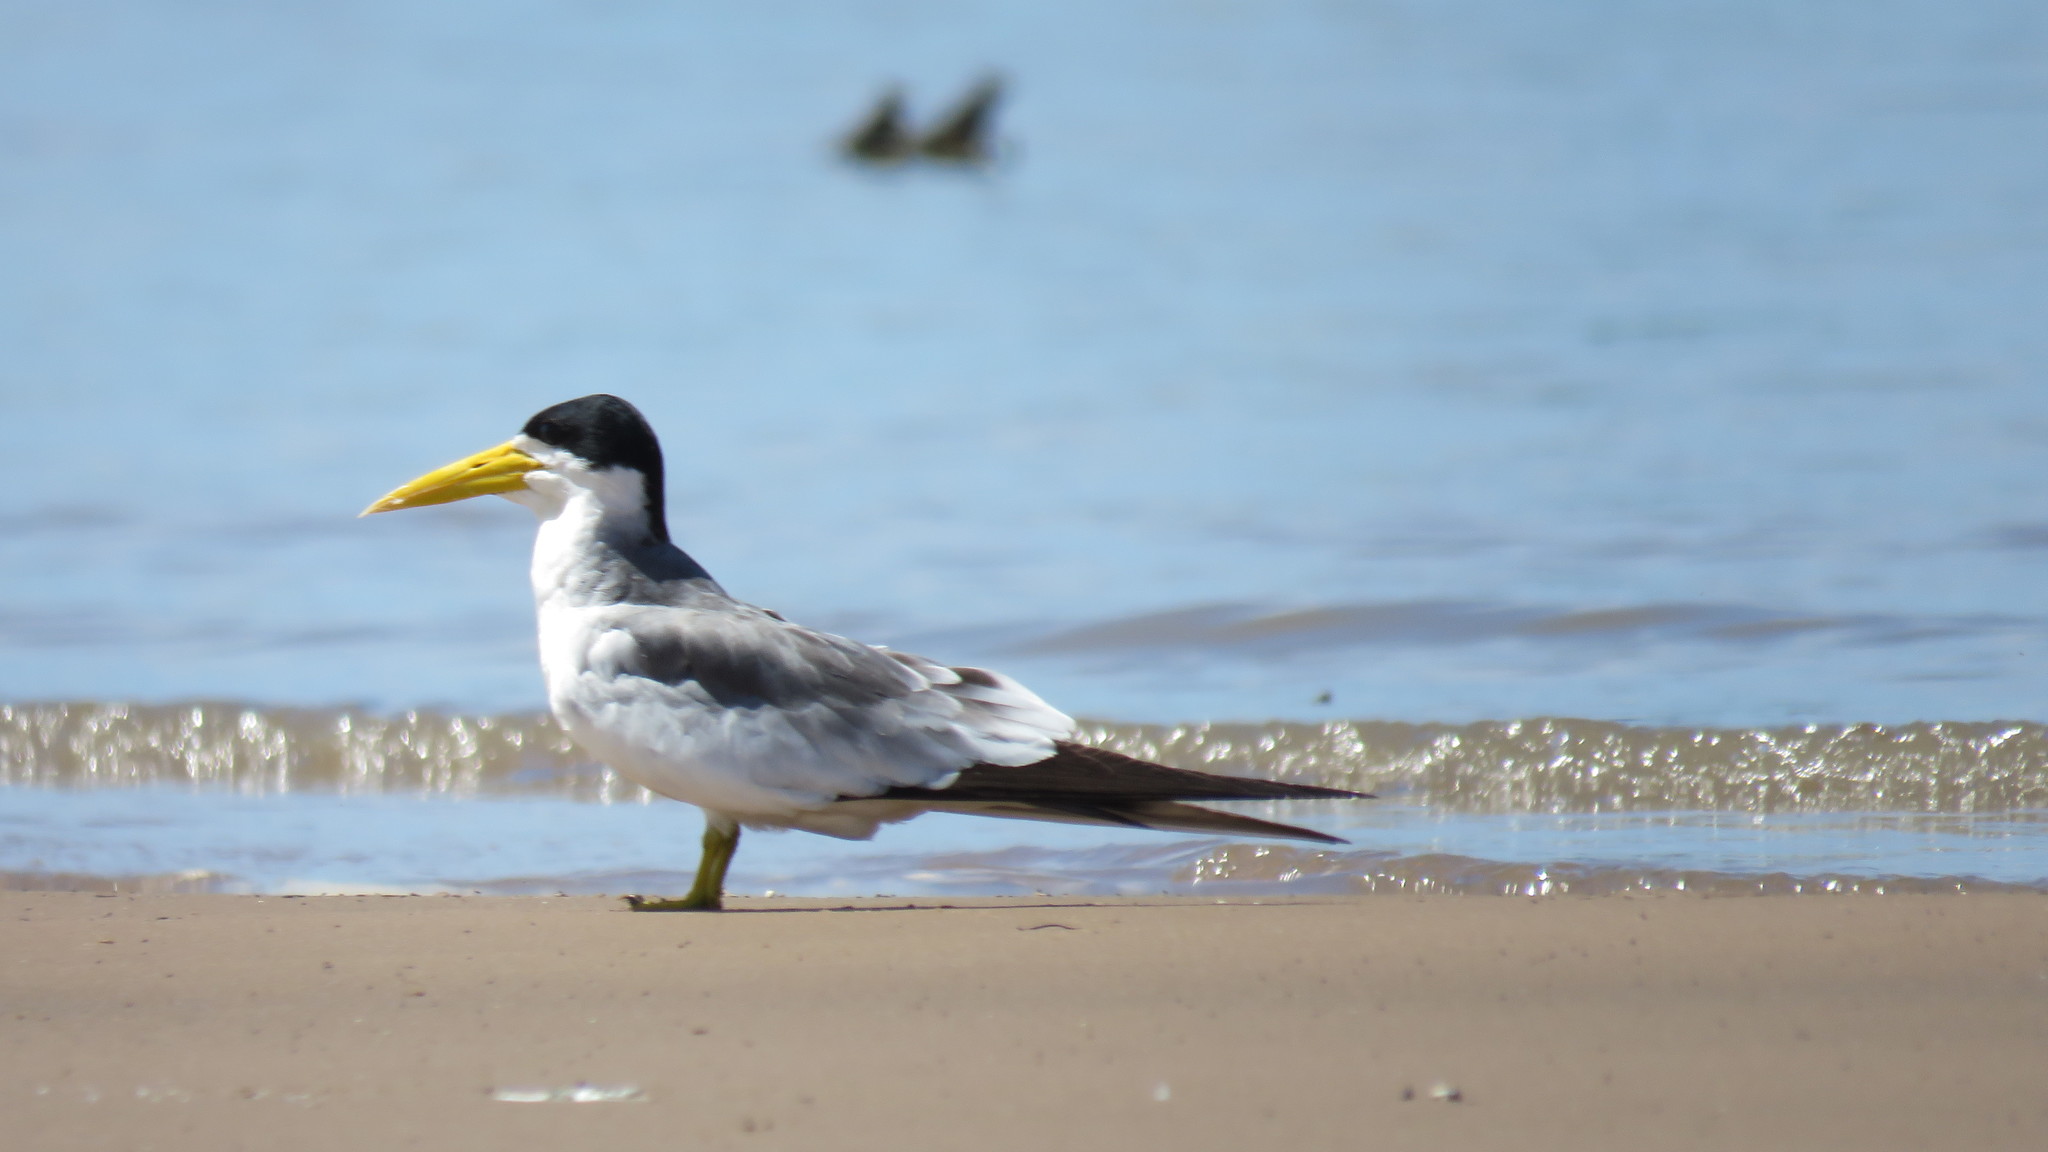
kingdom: Animalia
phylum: Chordata
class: Aves
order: Charadriiformes
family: Laridae
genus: Phaetusa
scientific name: Phaetusa simplex
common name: Large-billed tern
